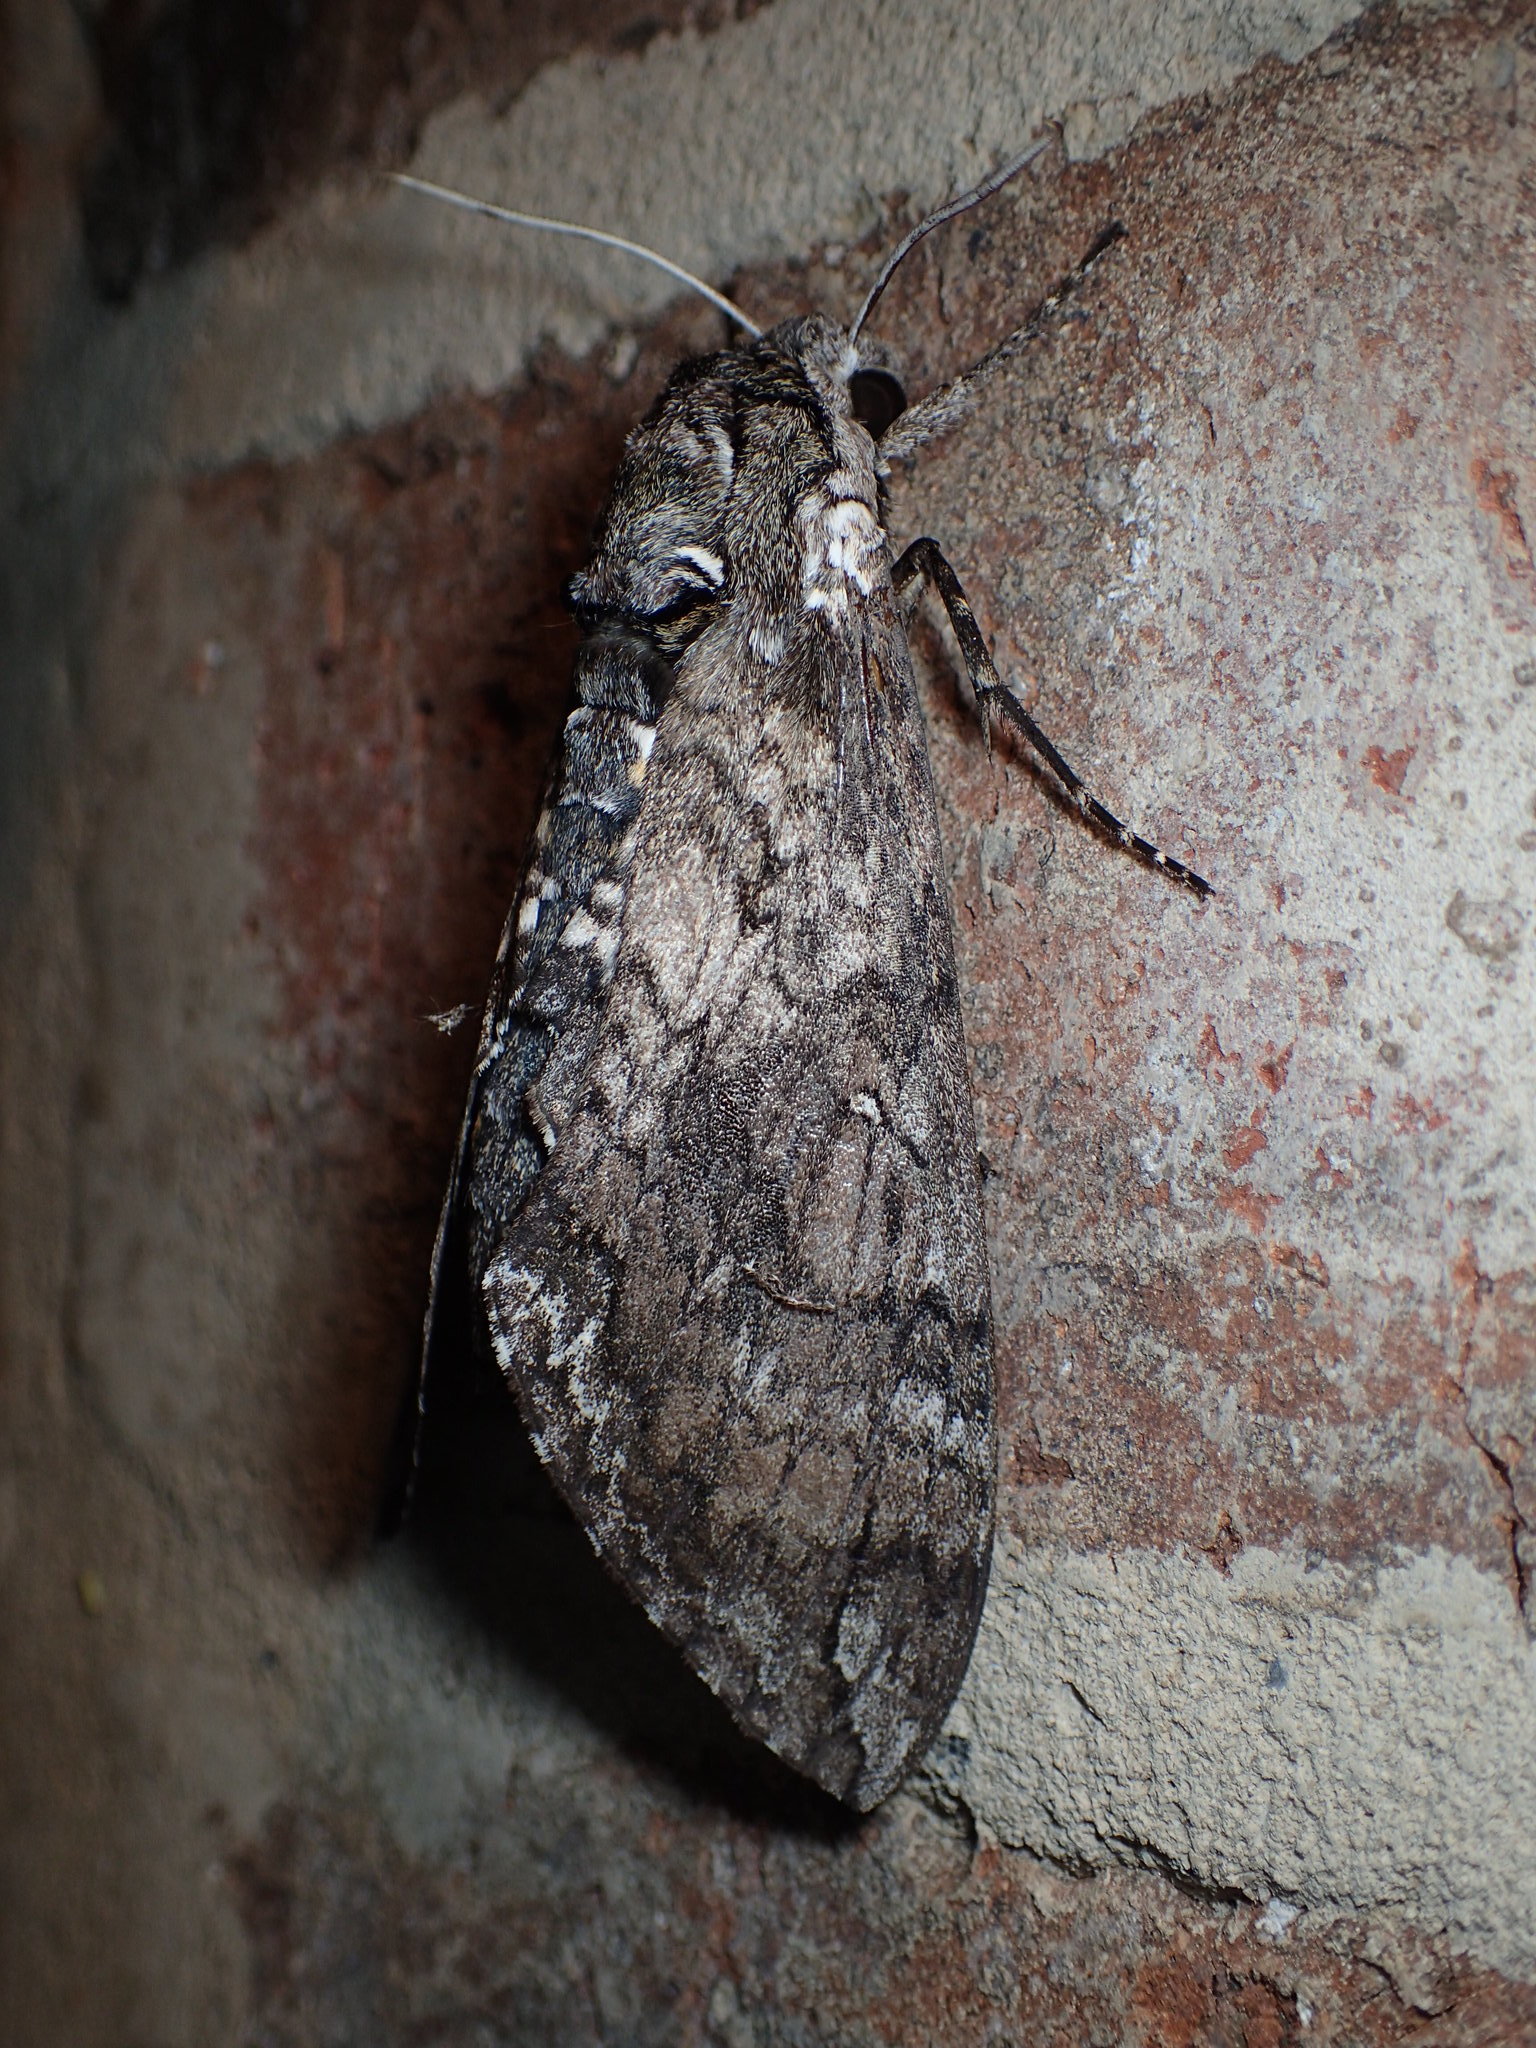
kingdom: Animalia
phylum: Arthropoda
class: Insecta
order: Lepidoptera
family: Sphingidae
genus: Manduca
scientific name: Manduca sexta
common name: Carolina sphinx
